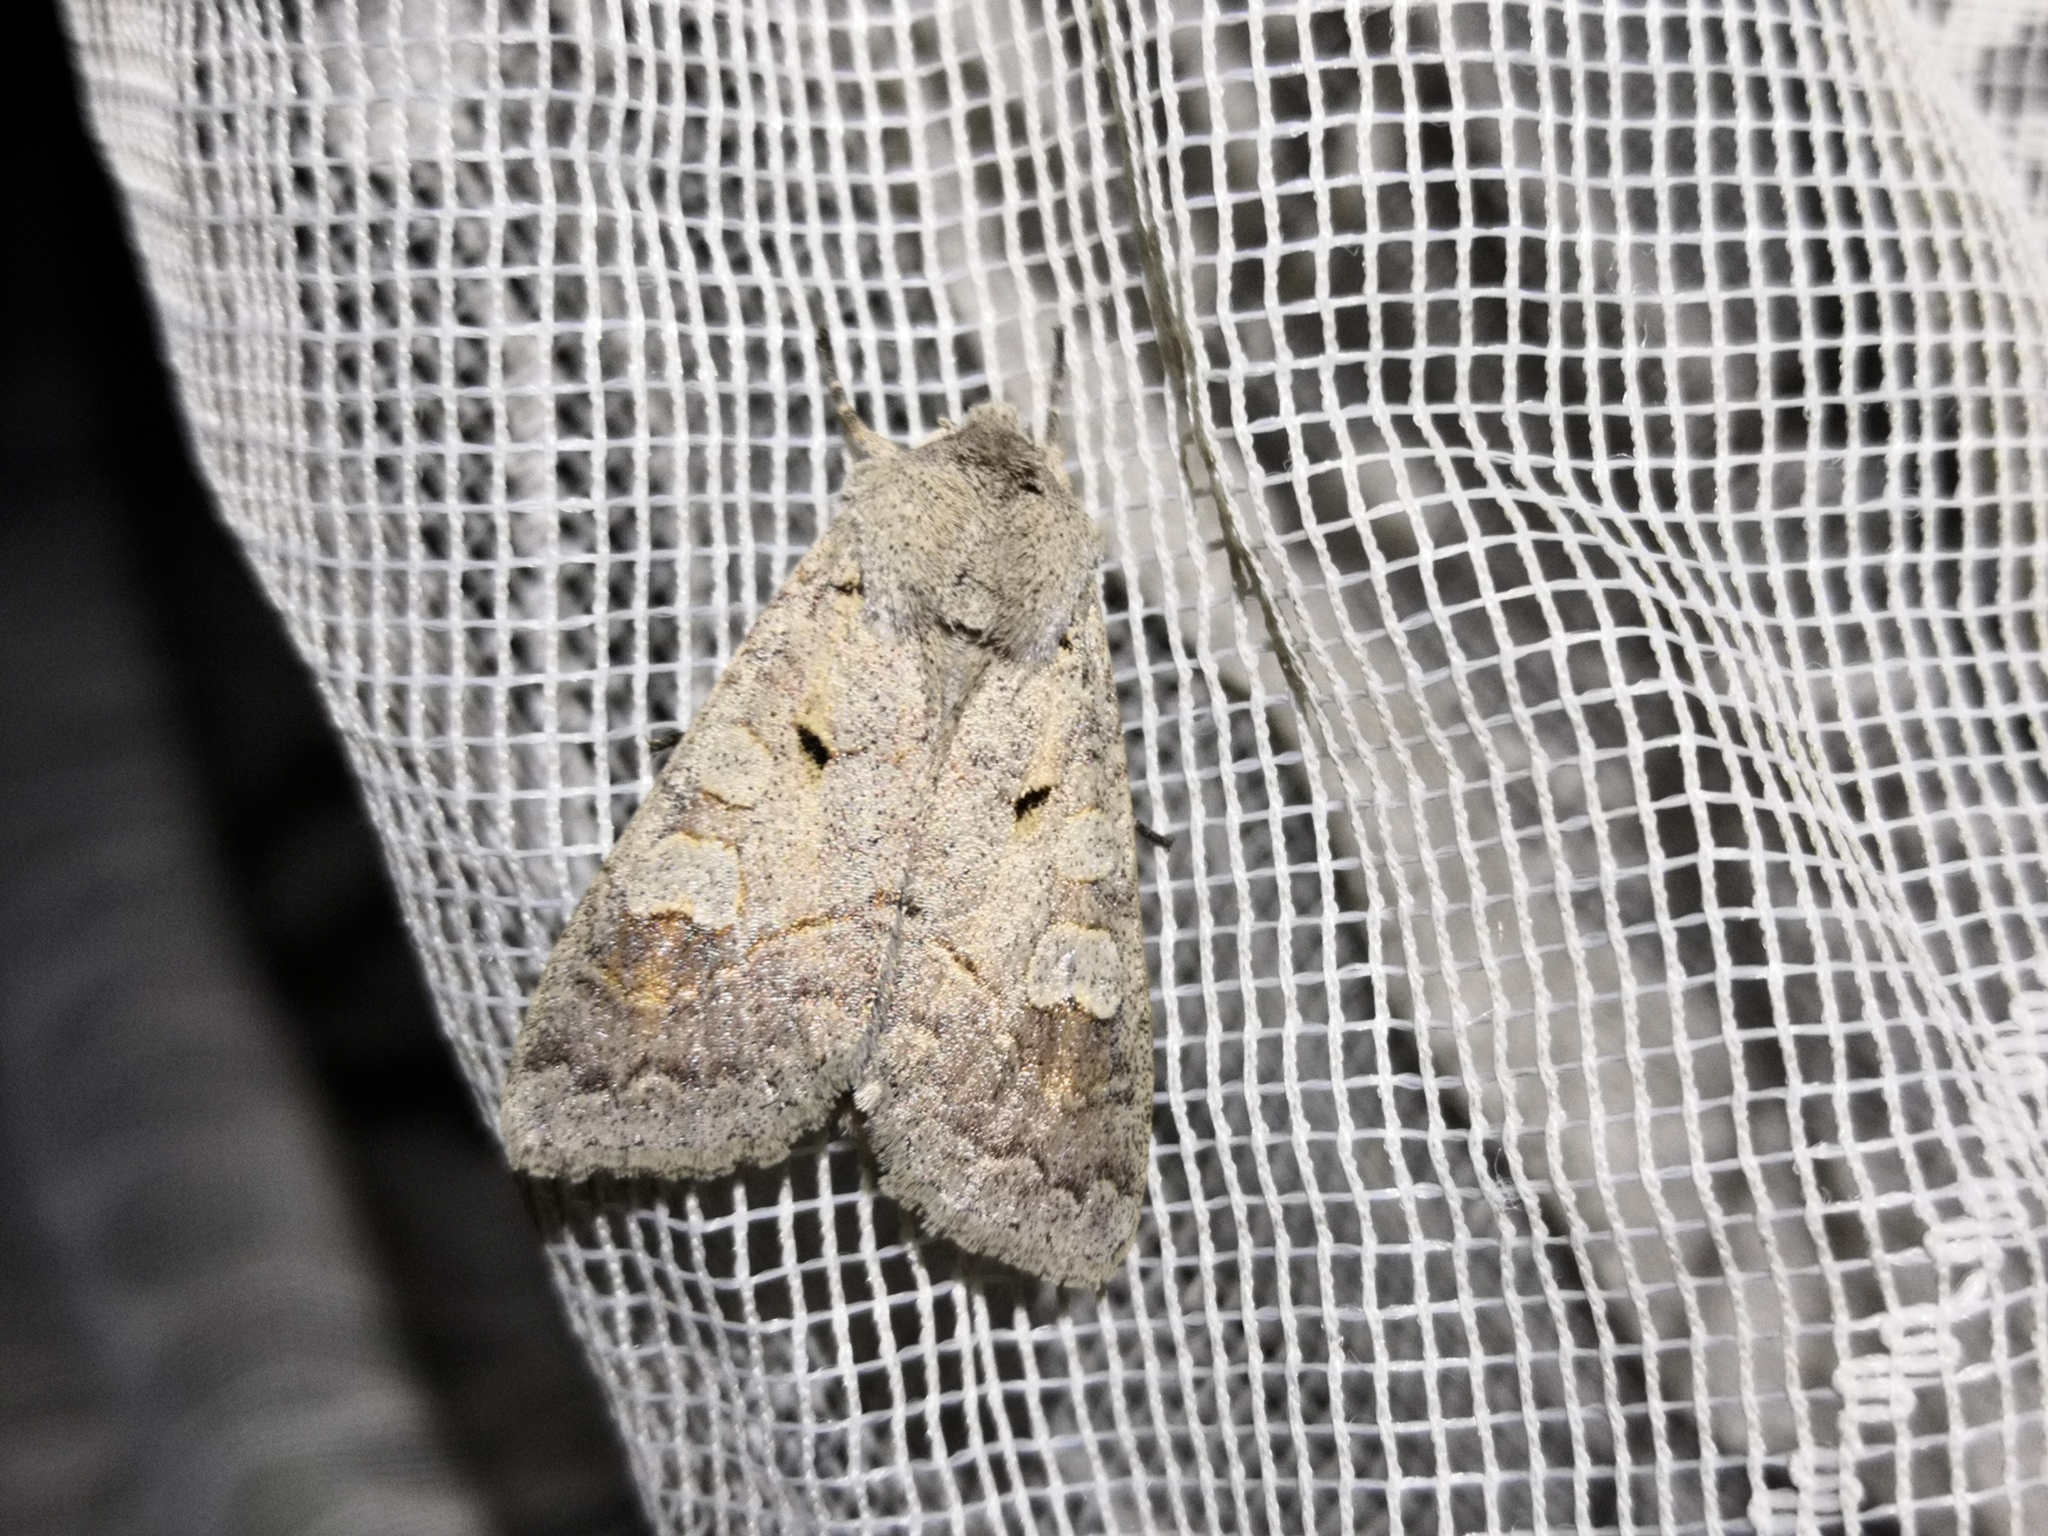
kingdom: Animalia
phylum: Arthropoda
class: Insecta
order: Lepidoptera
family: Noctuidae
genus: Ammoconia
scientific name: Ammoconia caecimacula
